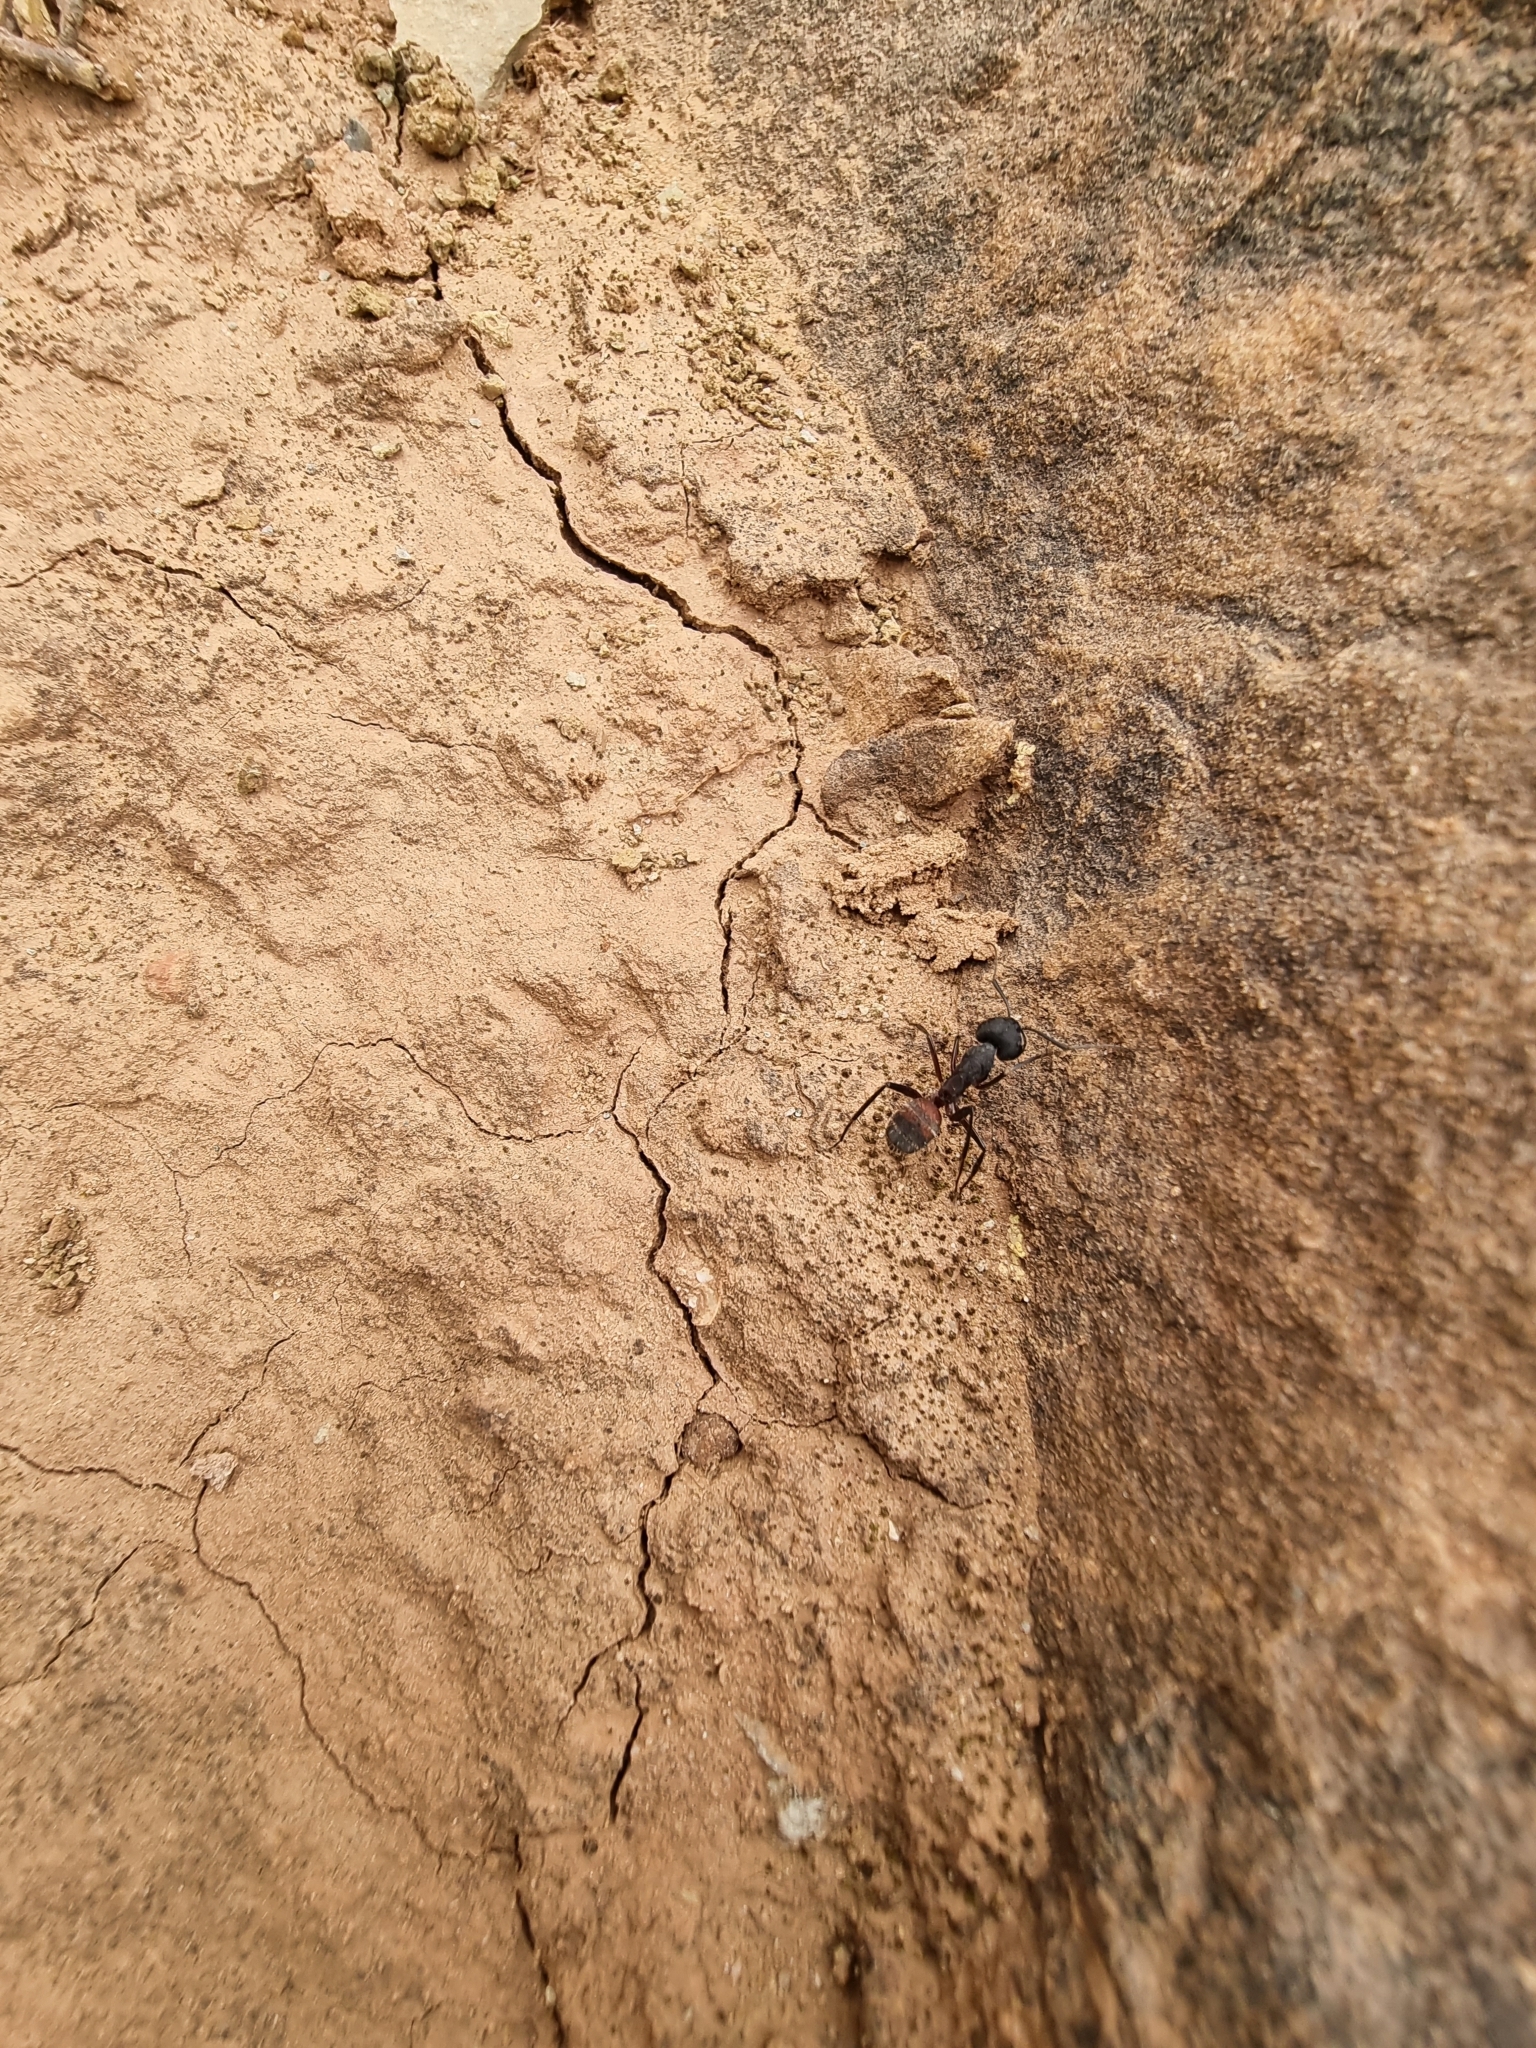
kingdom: Animalia
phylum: Arthropoda
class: Insecta
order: Hymenoptera
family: Formicidae
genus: Camponotus
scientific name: Camponotus cruentatus
